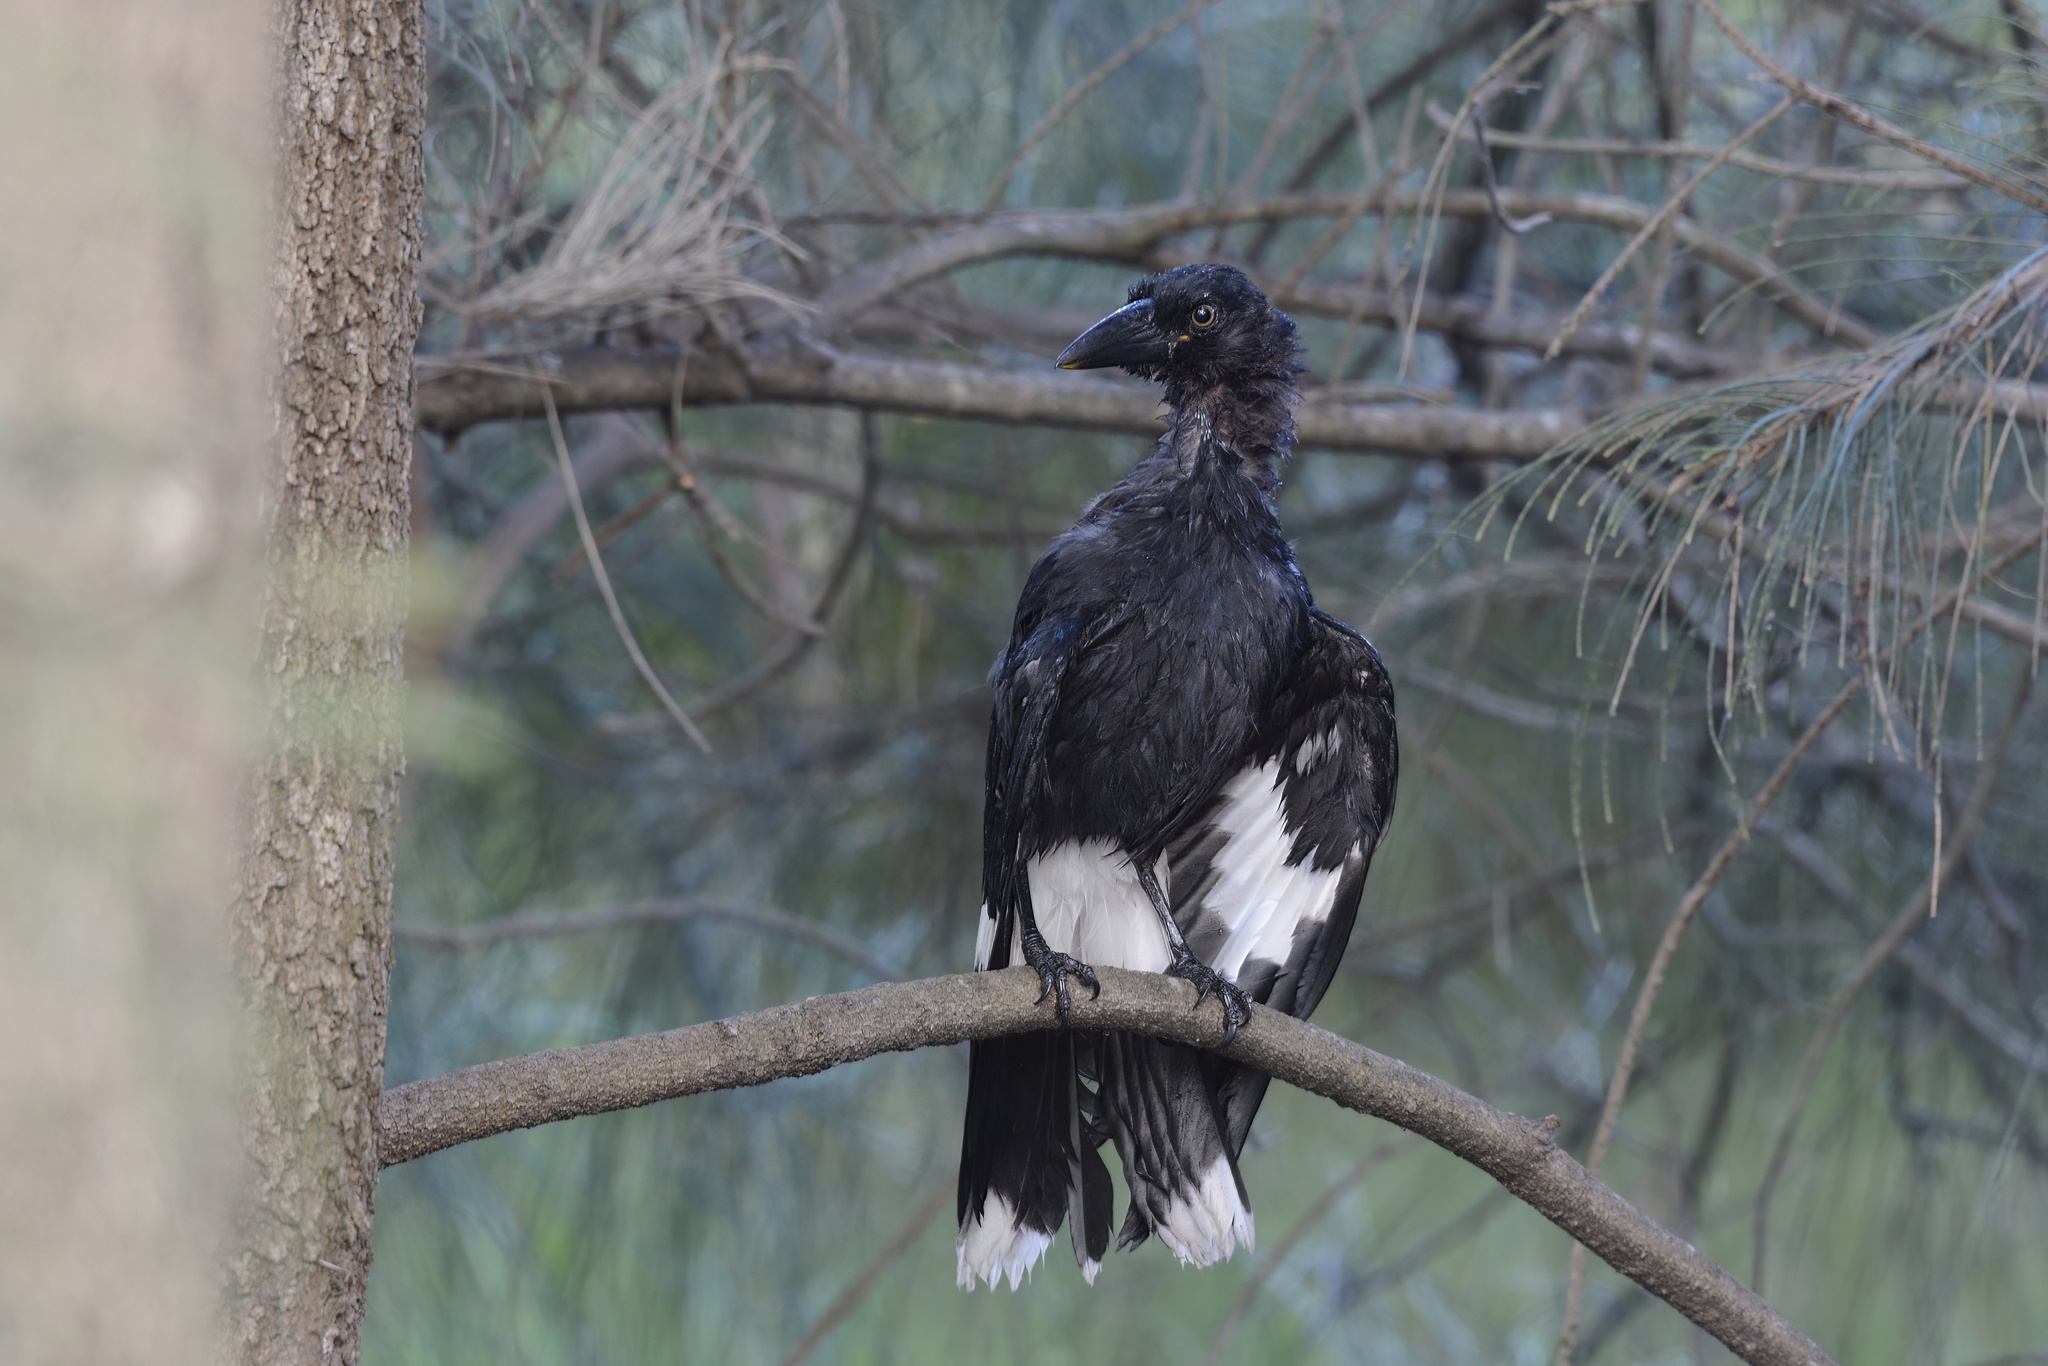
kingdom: Animalia
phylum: Chordata
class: Aves
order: Passeriformes
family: Cracticidae
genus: Strepera
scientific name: Strepera graculina
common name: Pied currawong
